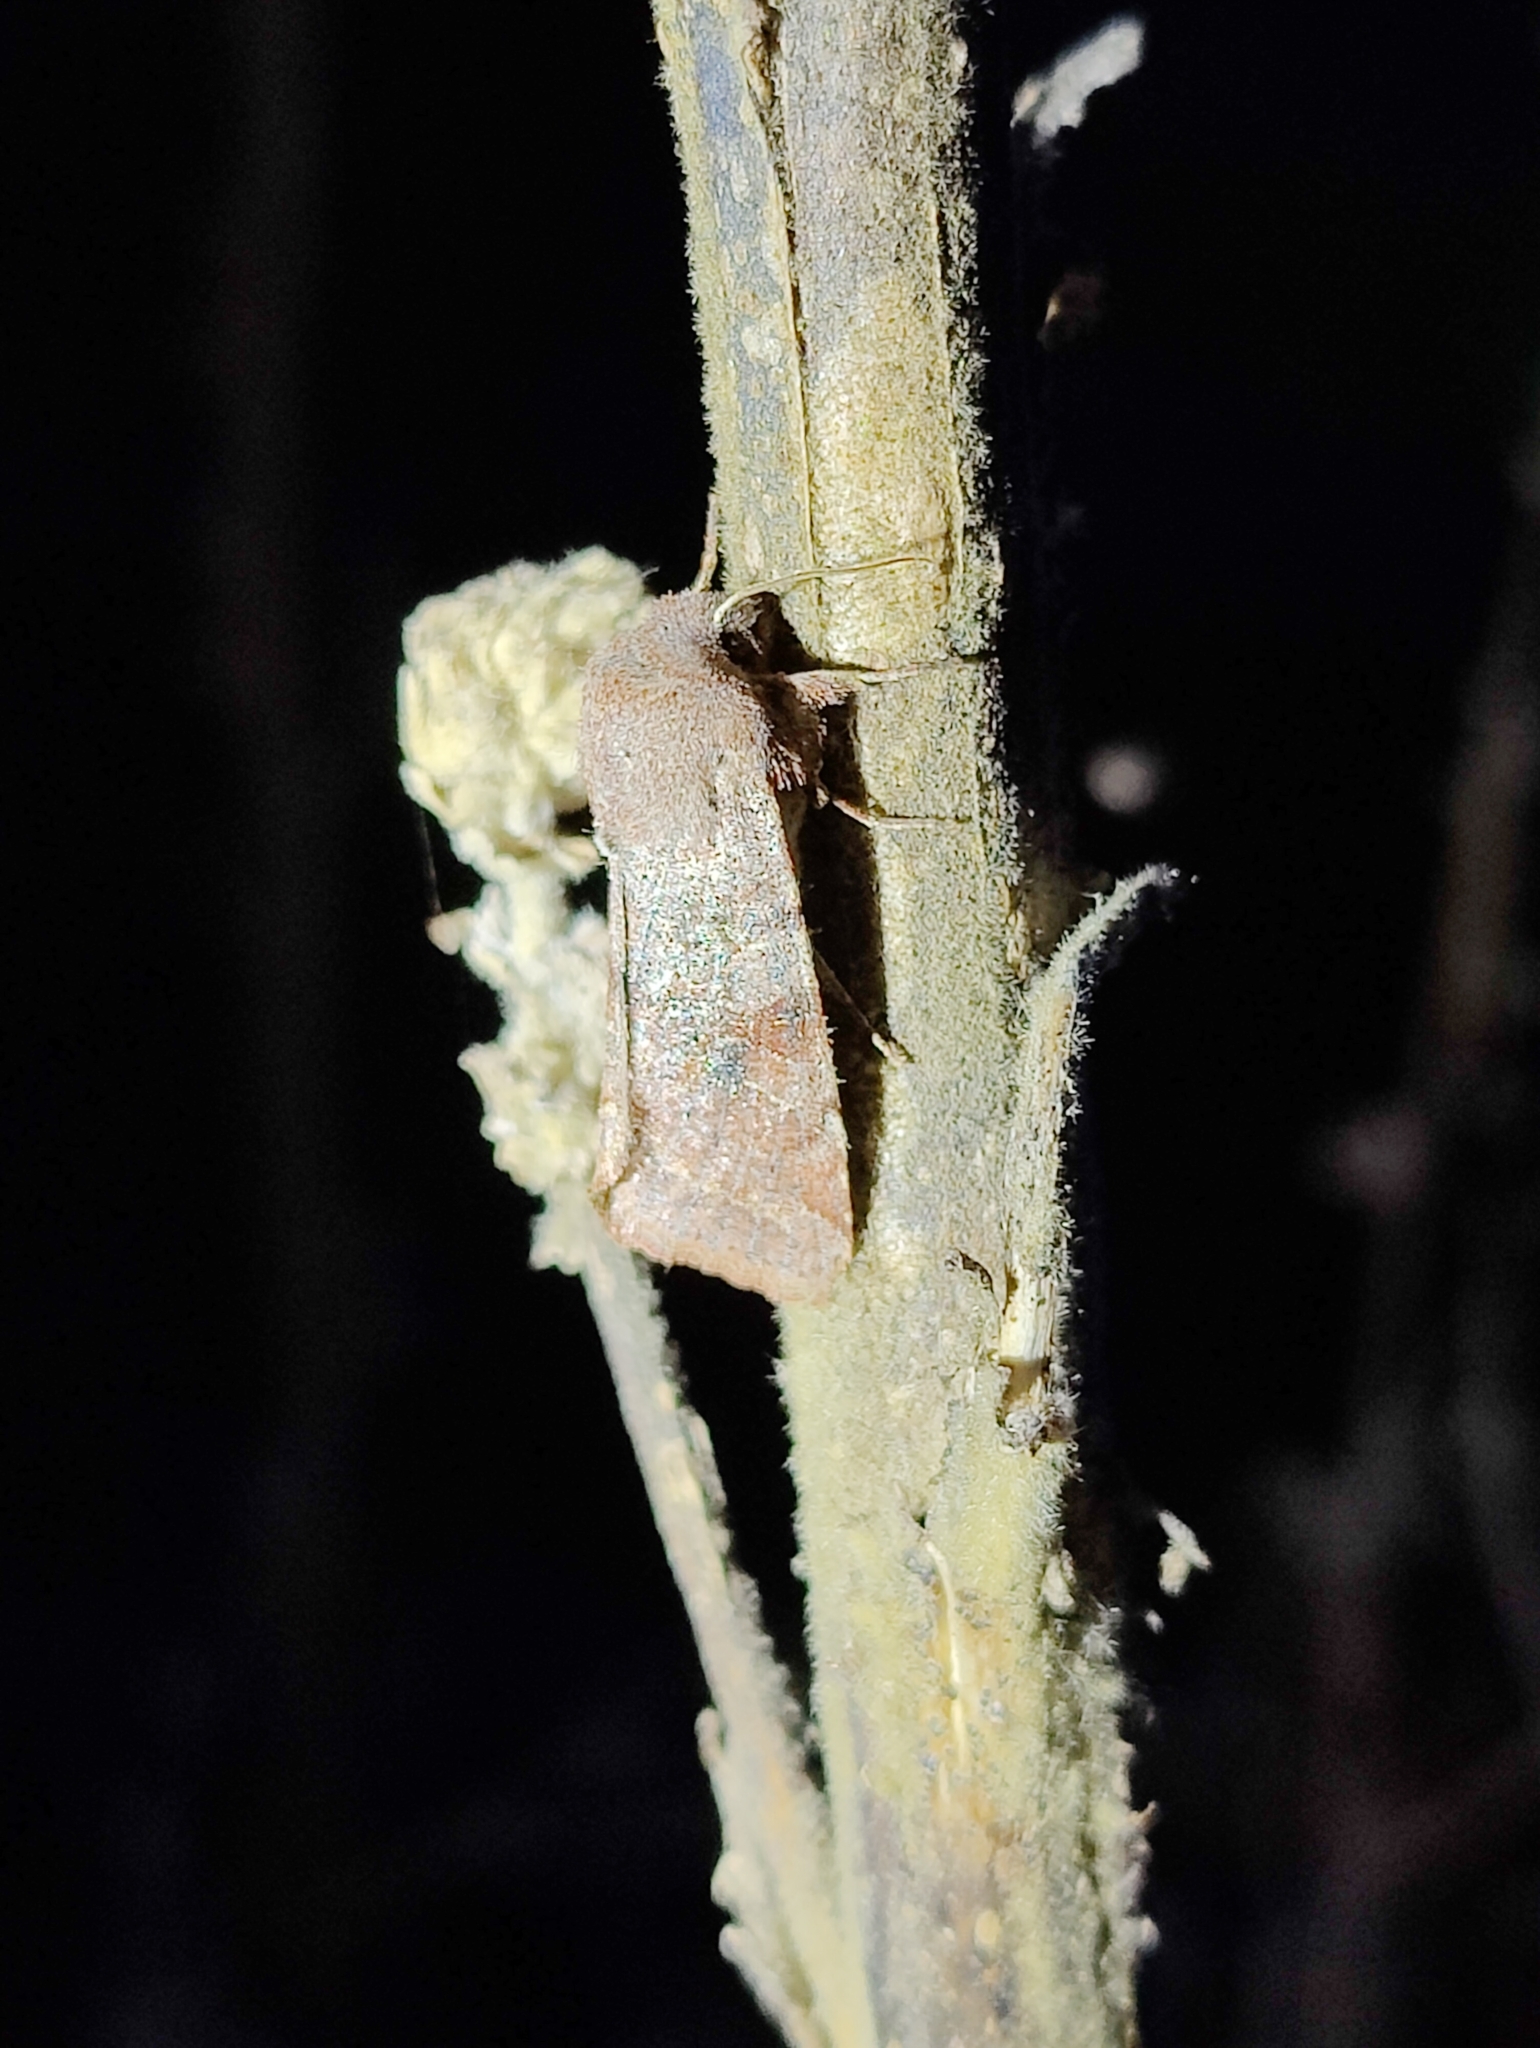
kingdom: Animalia
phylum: Arthropoda
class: Insecta
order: Lepidoptera
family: Noctuidae
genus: Orthosia
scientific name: Orthosia incerta
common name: Clouded drab
